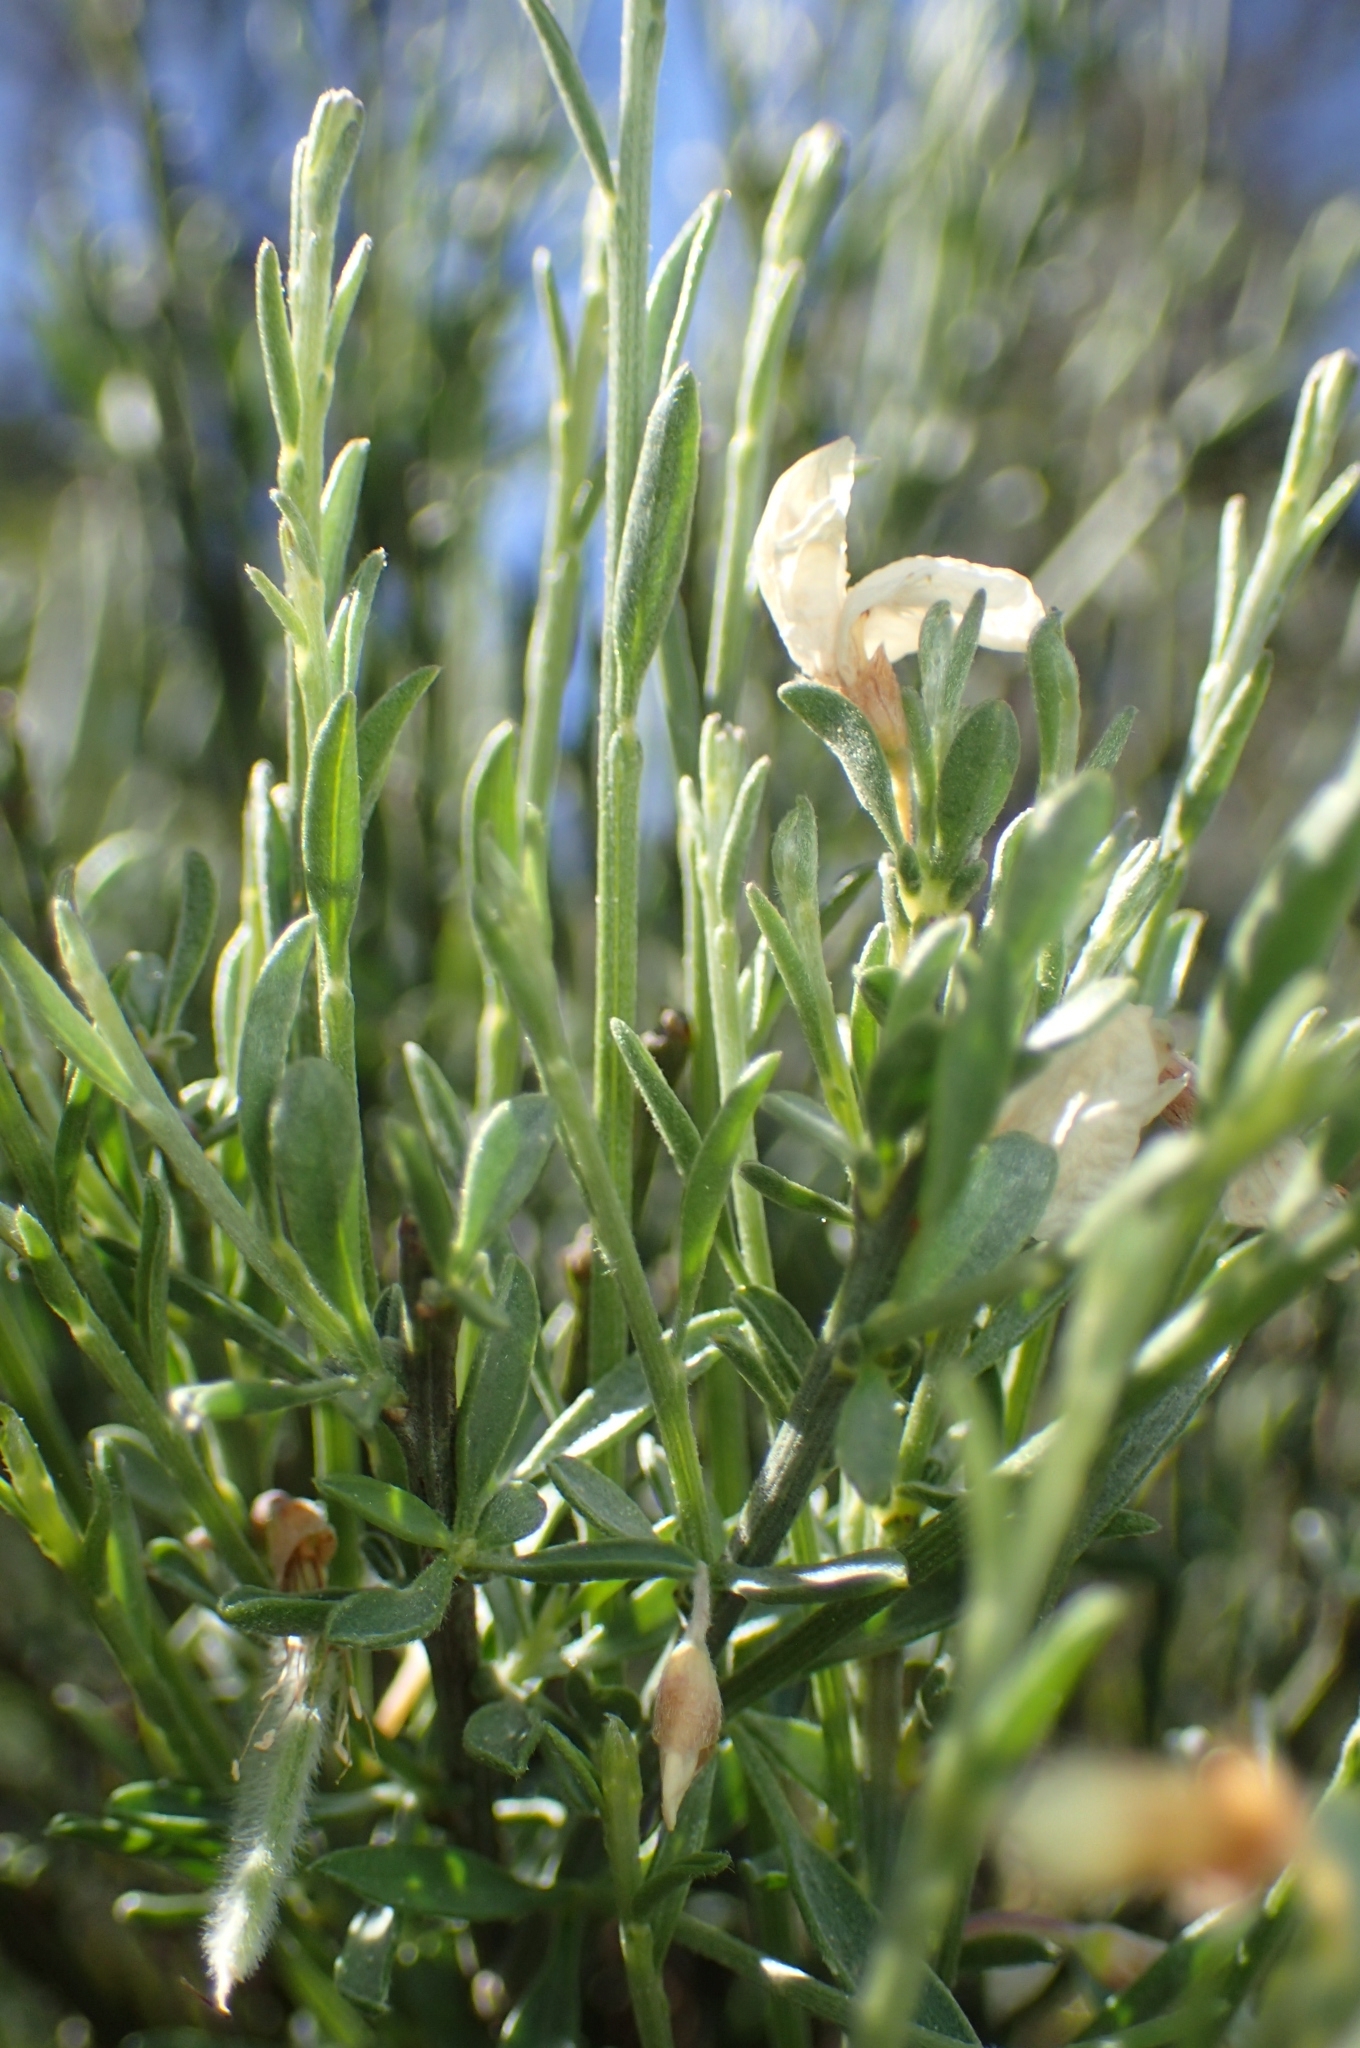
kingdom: Plantae
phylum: Tracheophyta
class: Magnoliopsida
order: Fabales
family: Fabaceae
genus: Cytisus
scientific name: Cytisus multiflorus
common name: White broom
